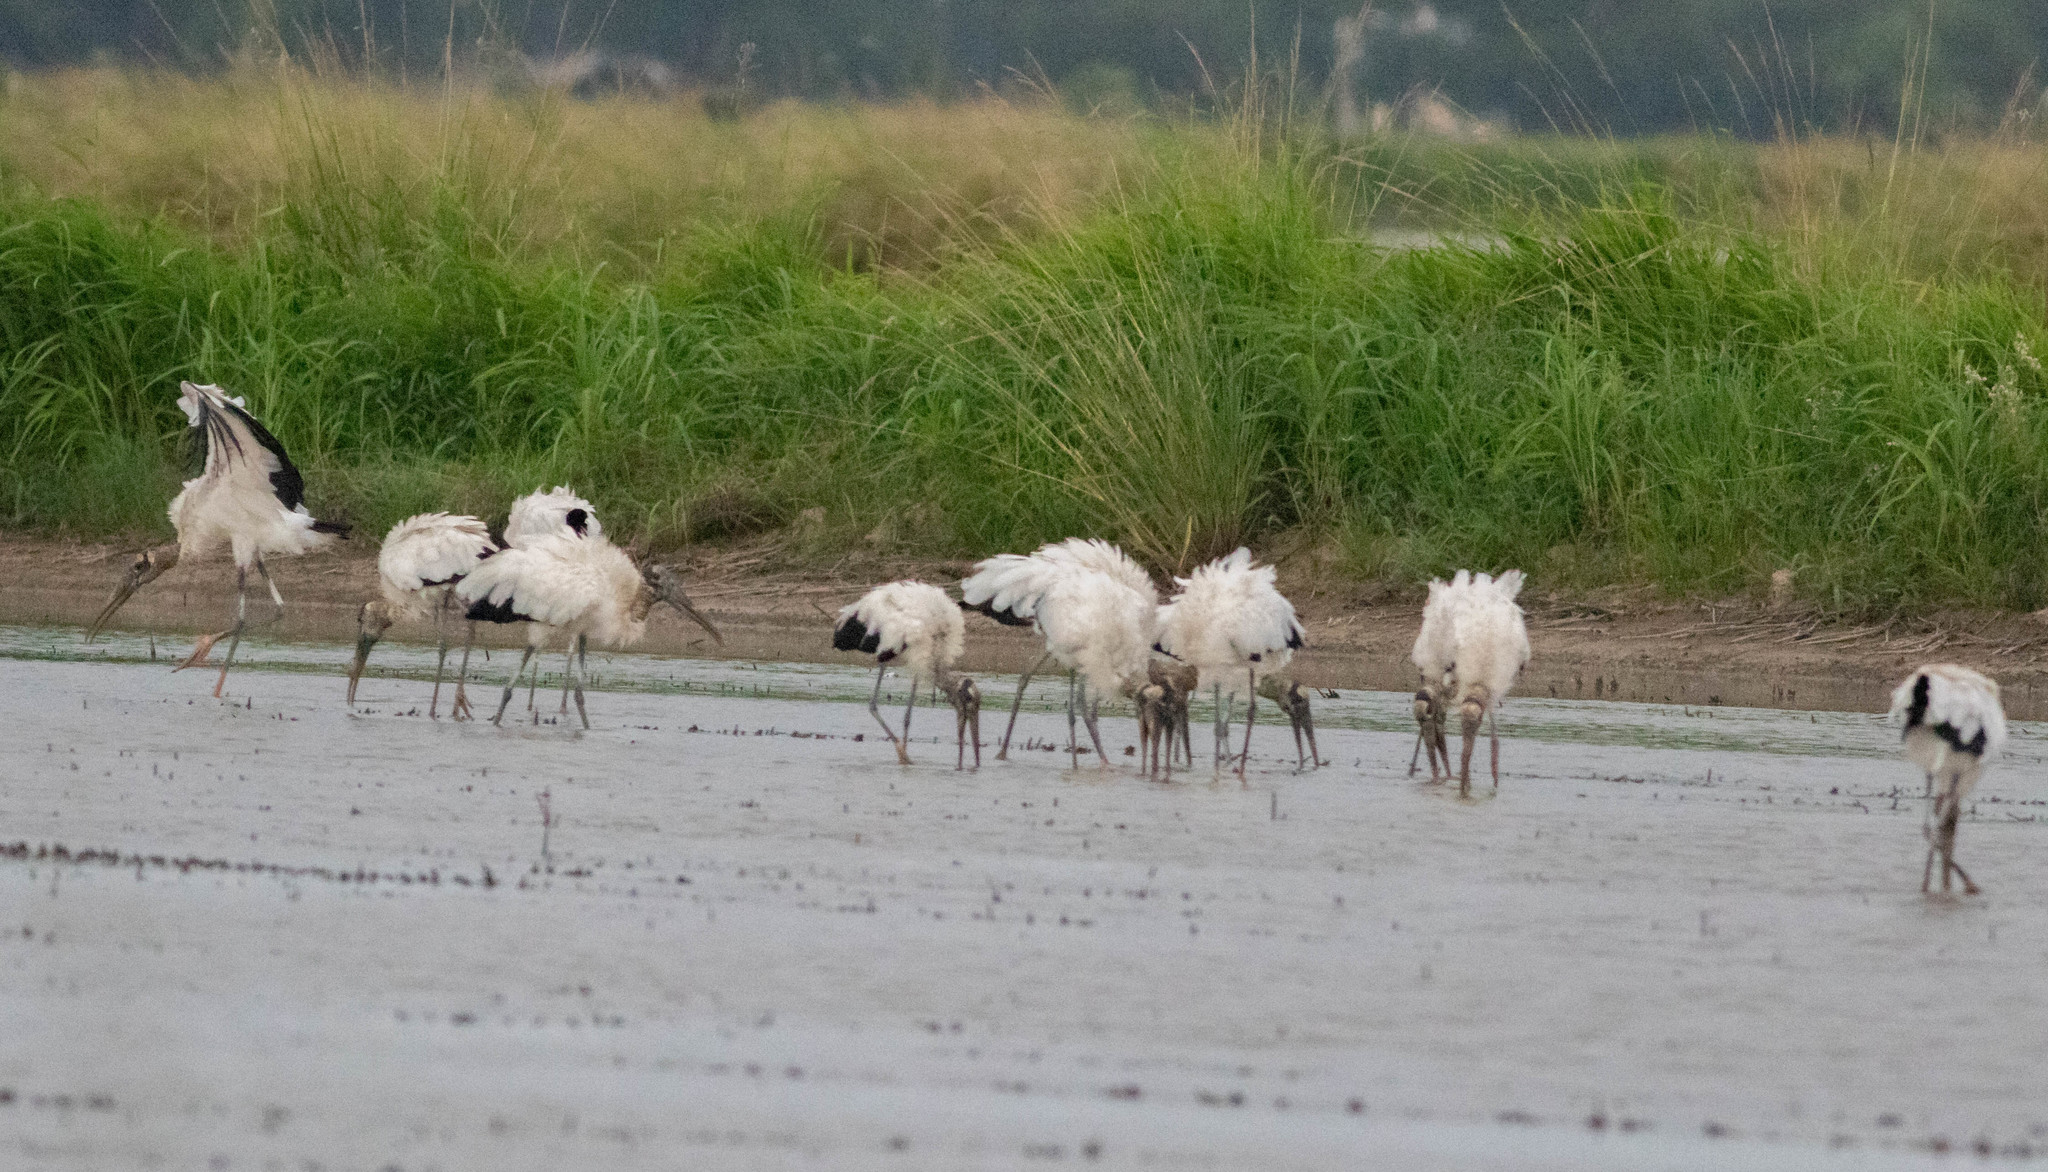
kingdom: Animalia
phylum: Chordata
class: Aves
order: Ciconiiformes
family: Ciconiidae
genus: Mycteria
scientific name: Mycteria americana
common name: Wood stork
